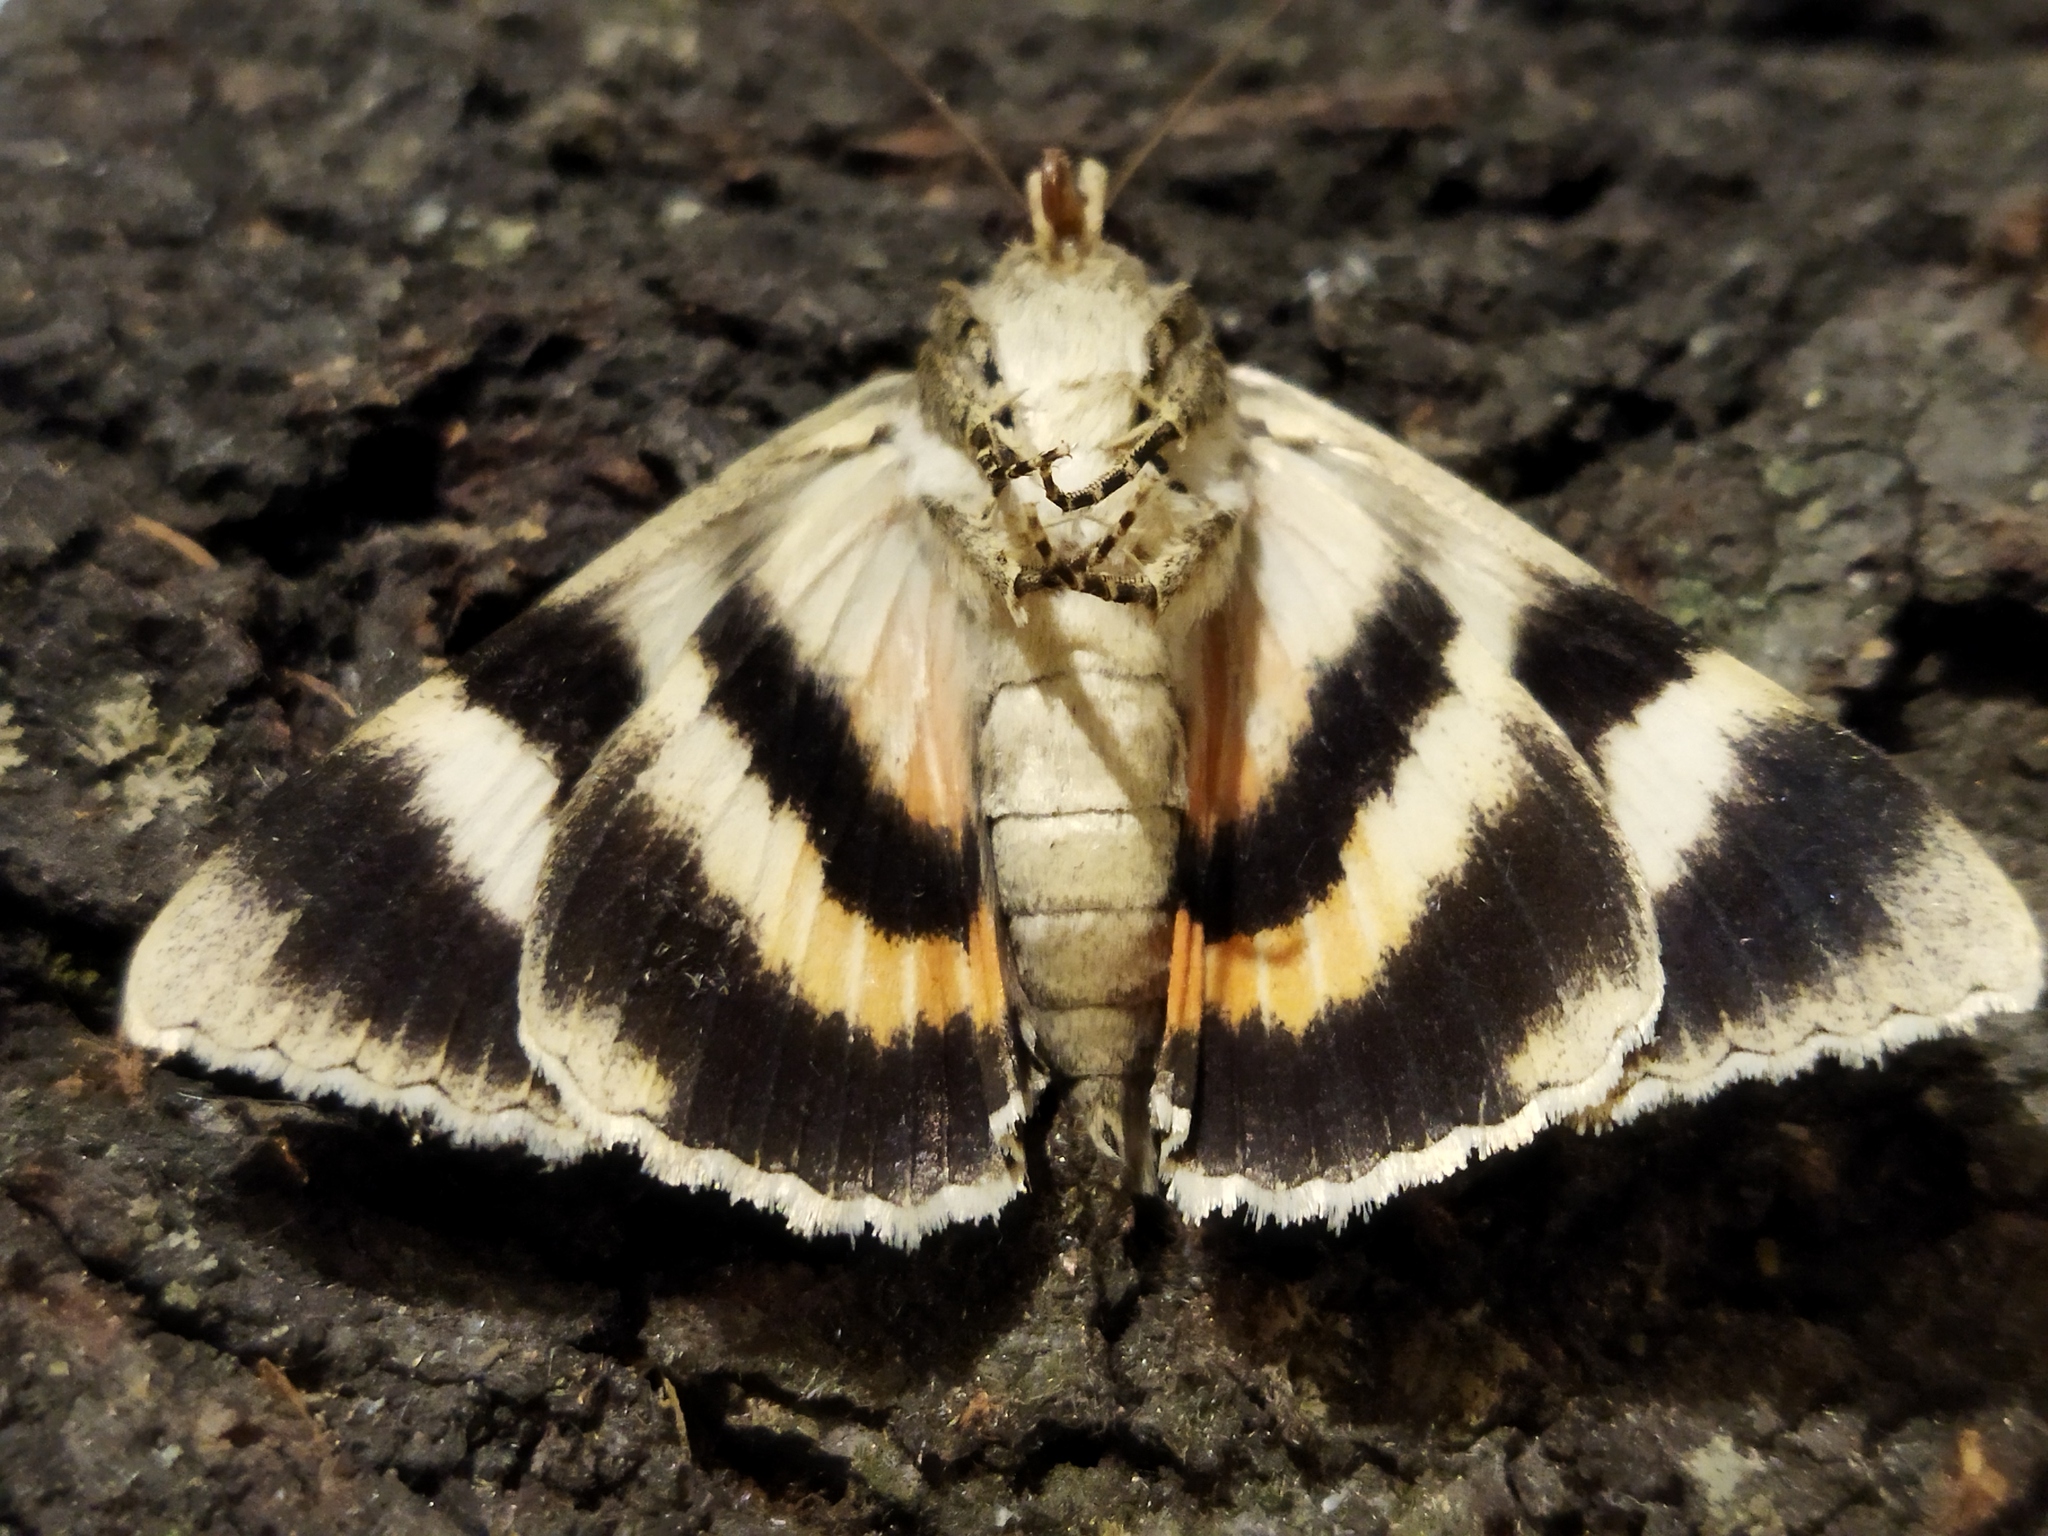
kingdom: Animalia
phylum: Arthropoda
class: Insecta
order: Lepidoptera
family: Erebidae
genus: Catocala
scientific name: Catocala puerpera
